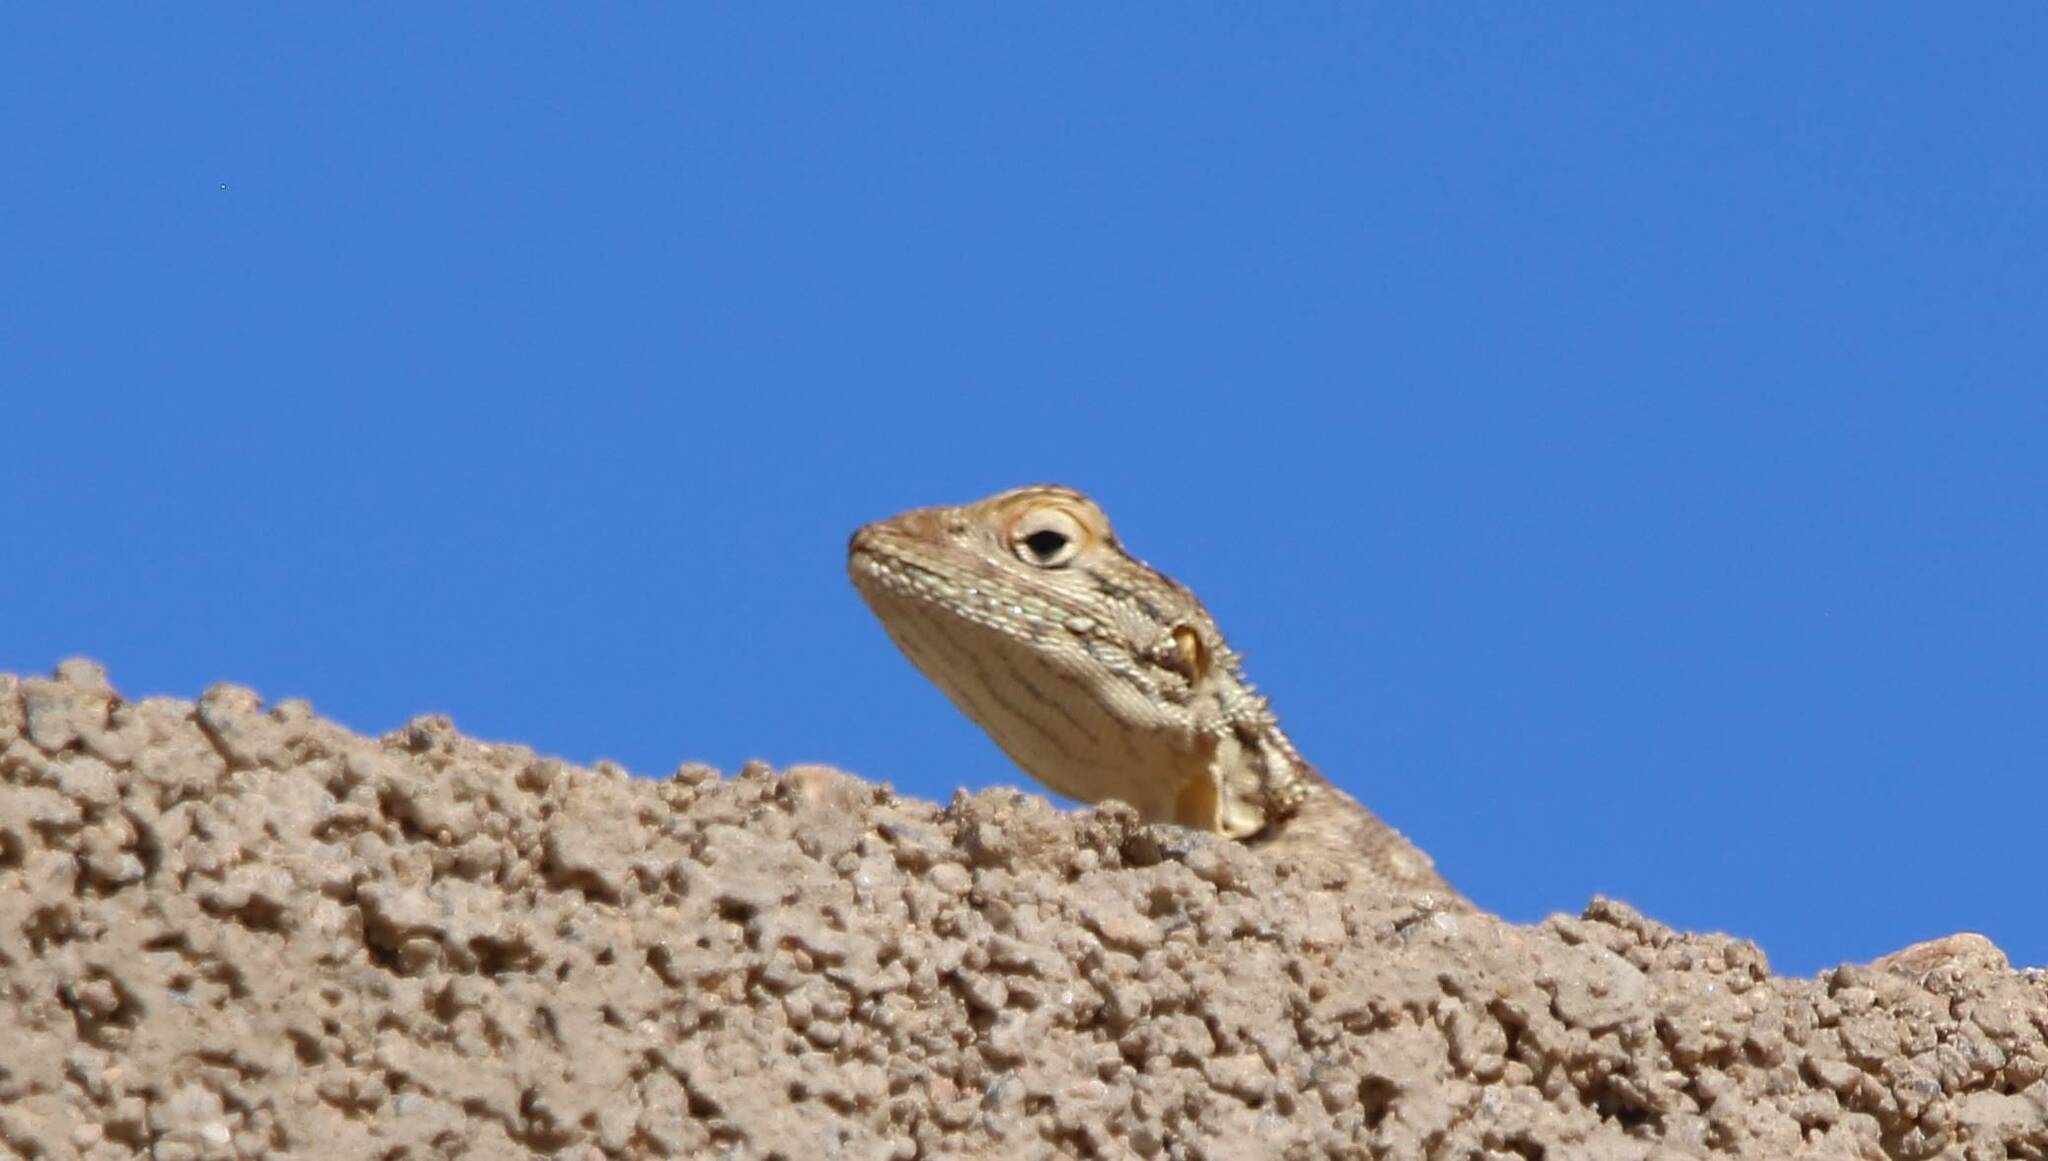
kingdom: Animalia
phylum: Chordata
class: Squamata
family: Agamidae
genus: Agama
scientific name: Agama tassiliensis
